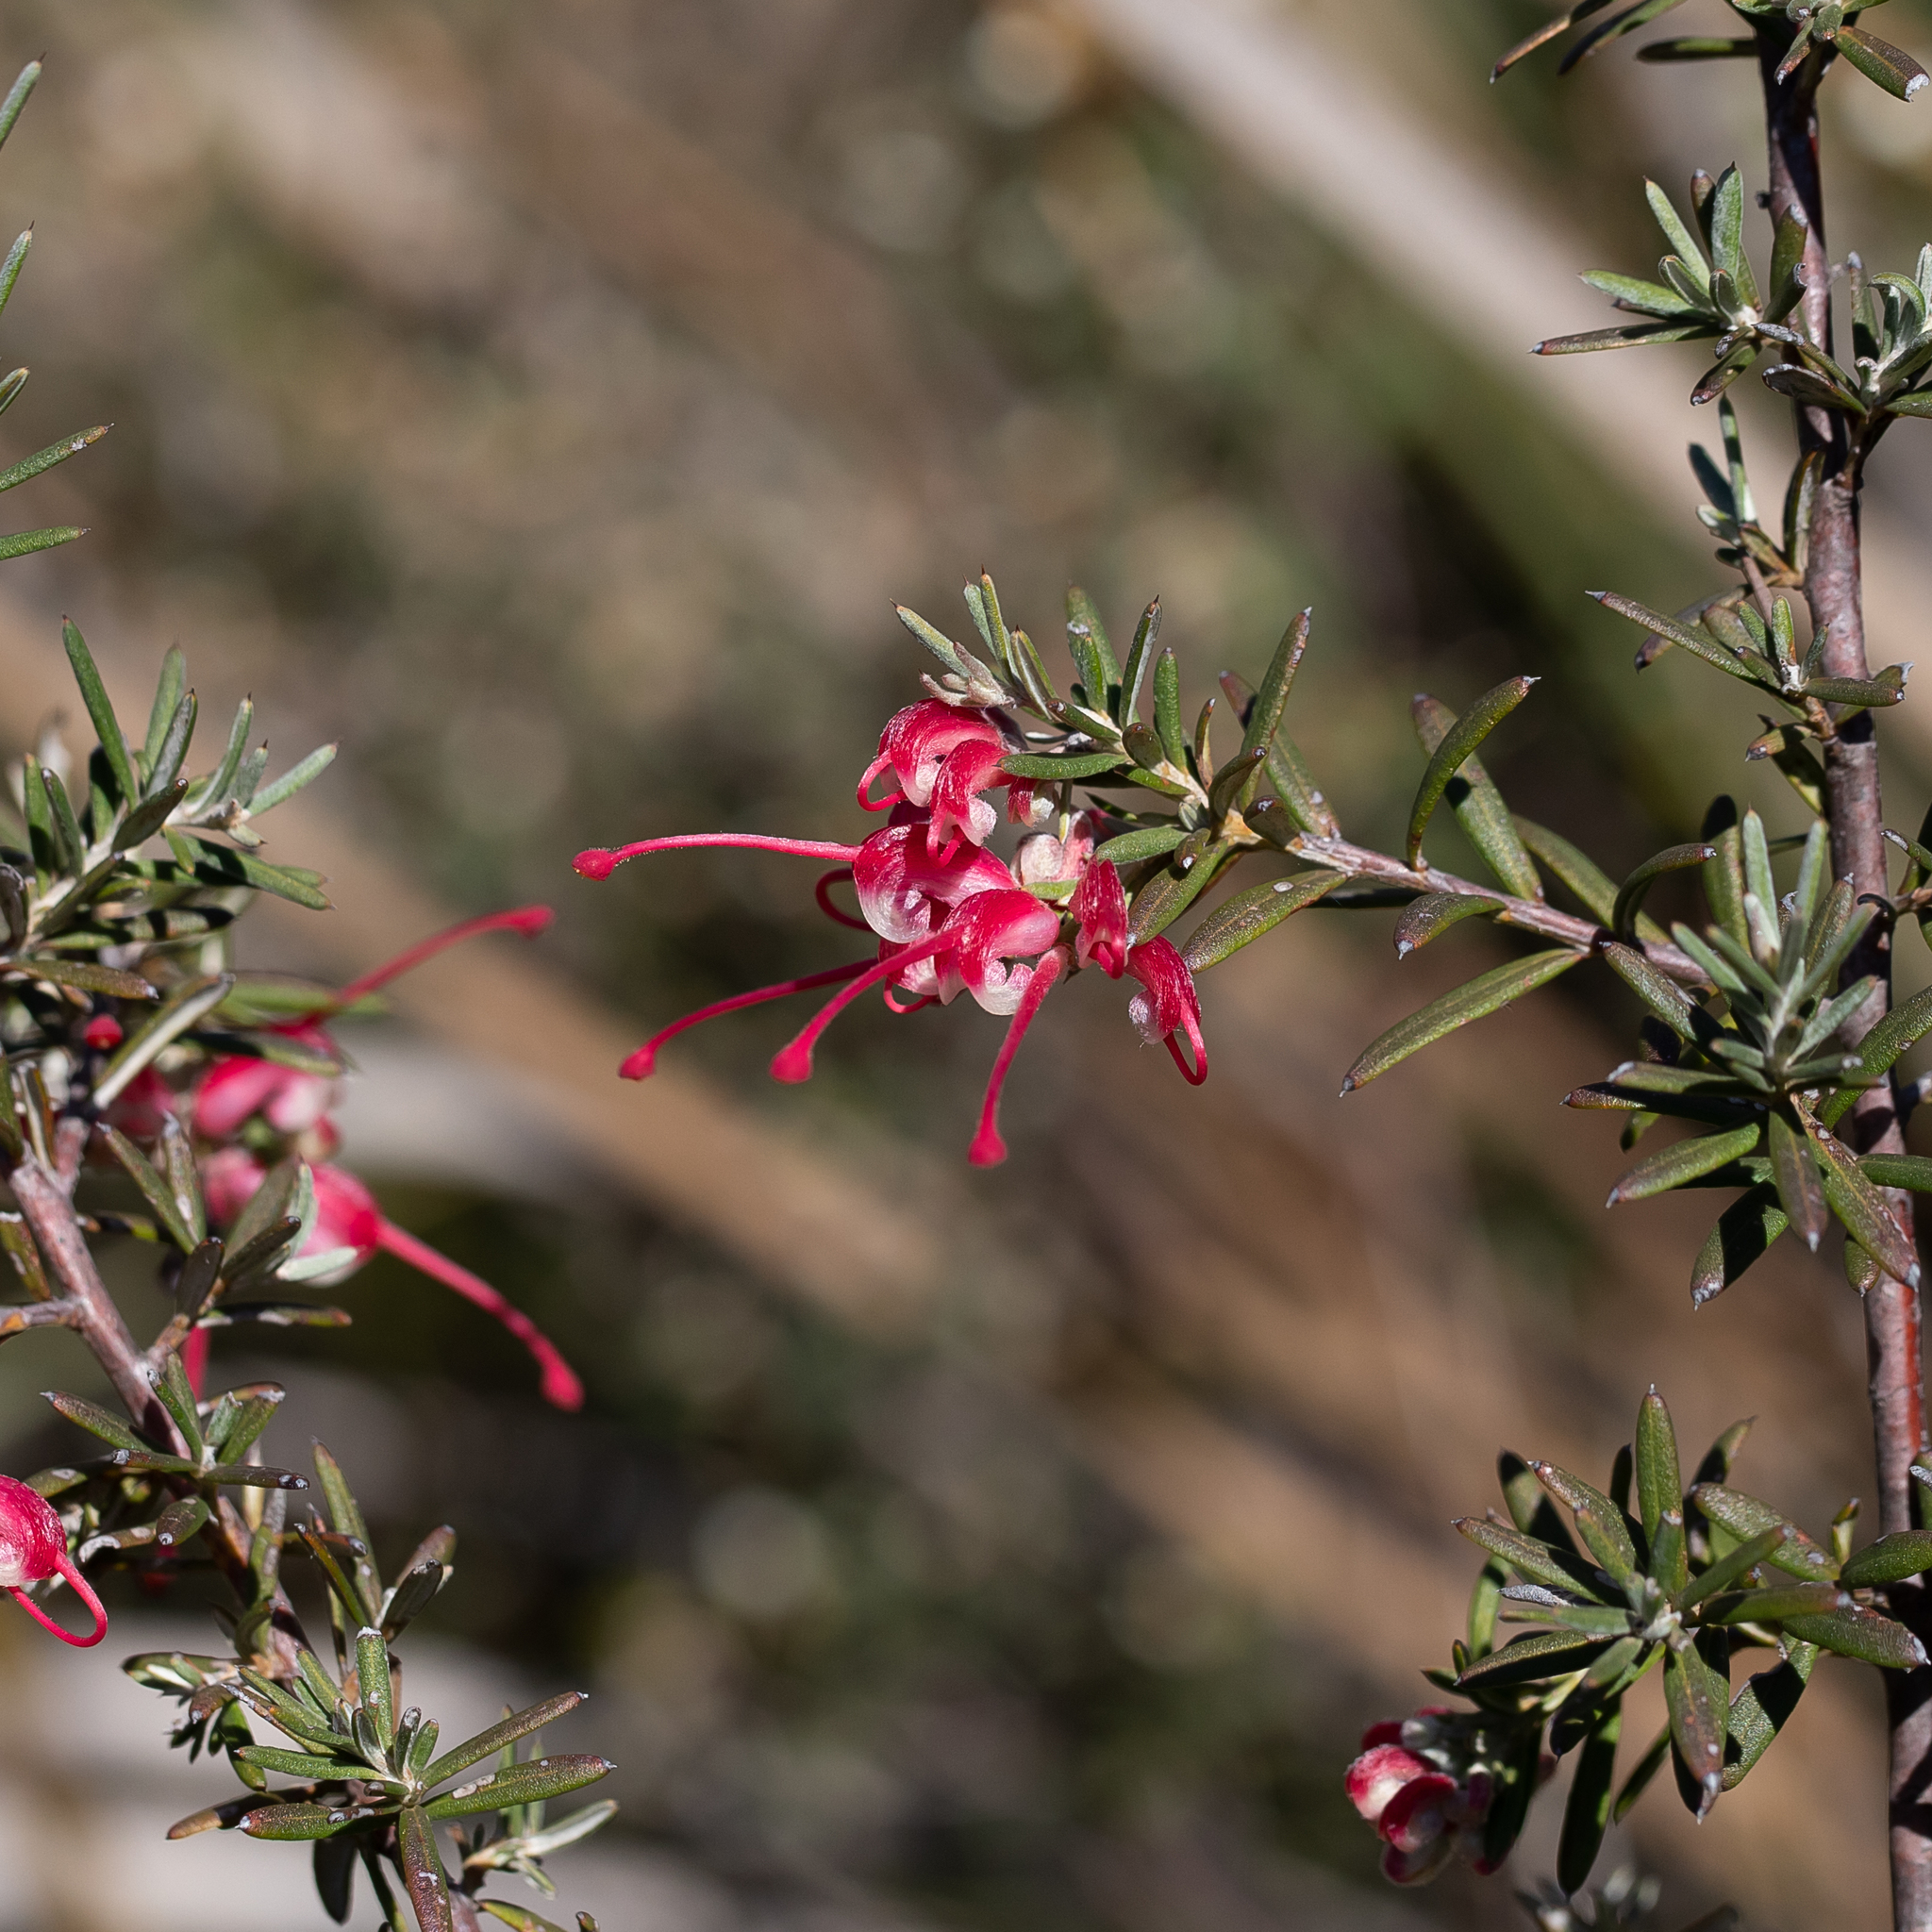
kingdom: Plantae
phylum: Tracheophyta
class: Magnoliopsida
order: Proteales
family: Proteaceae
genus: Grevillea
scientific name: Grevillea lavandulacea
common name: Lavender grevillea
